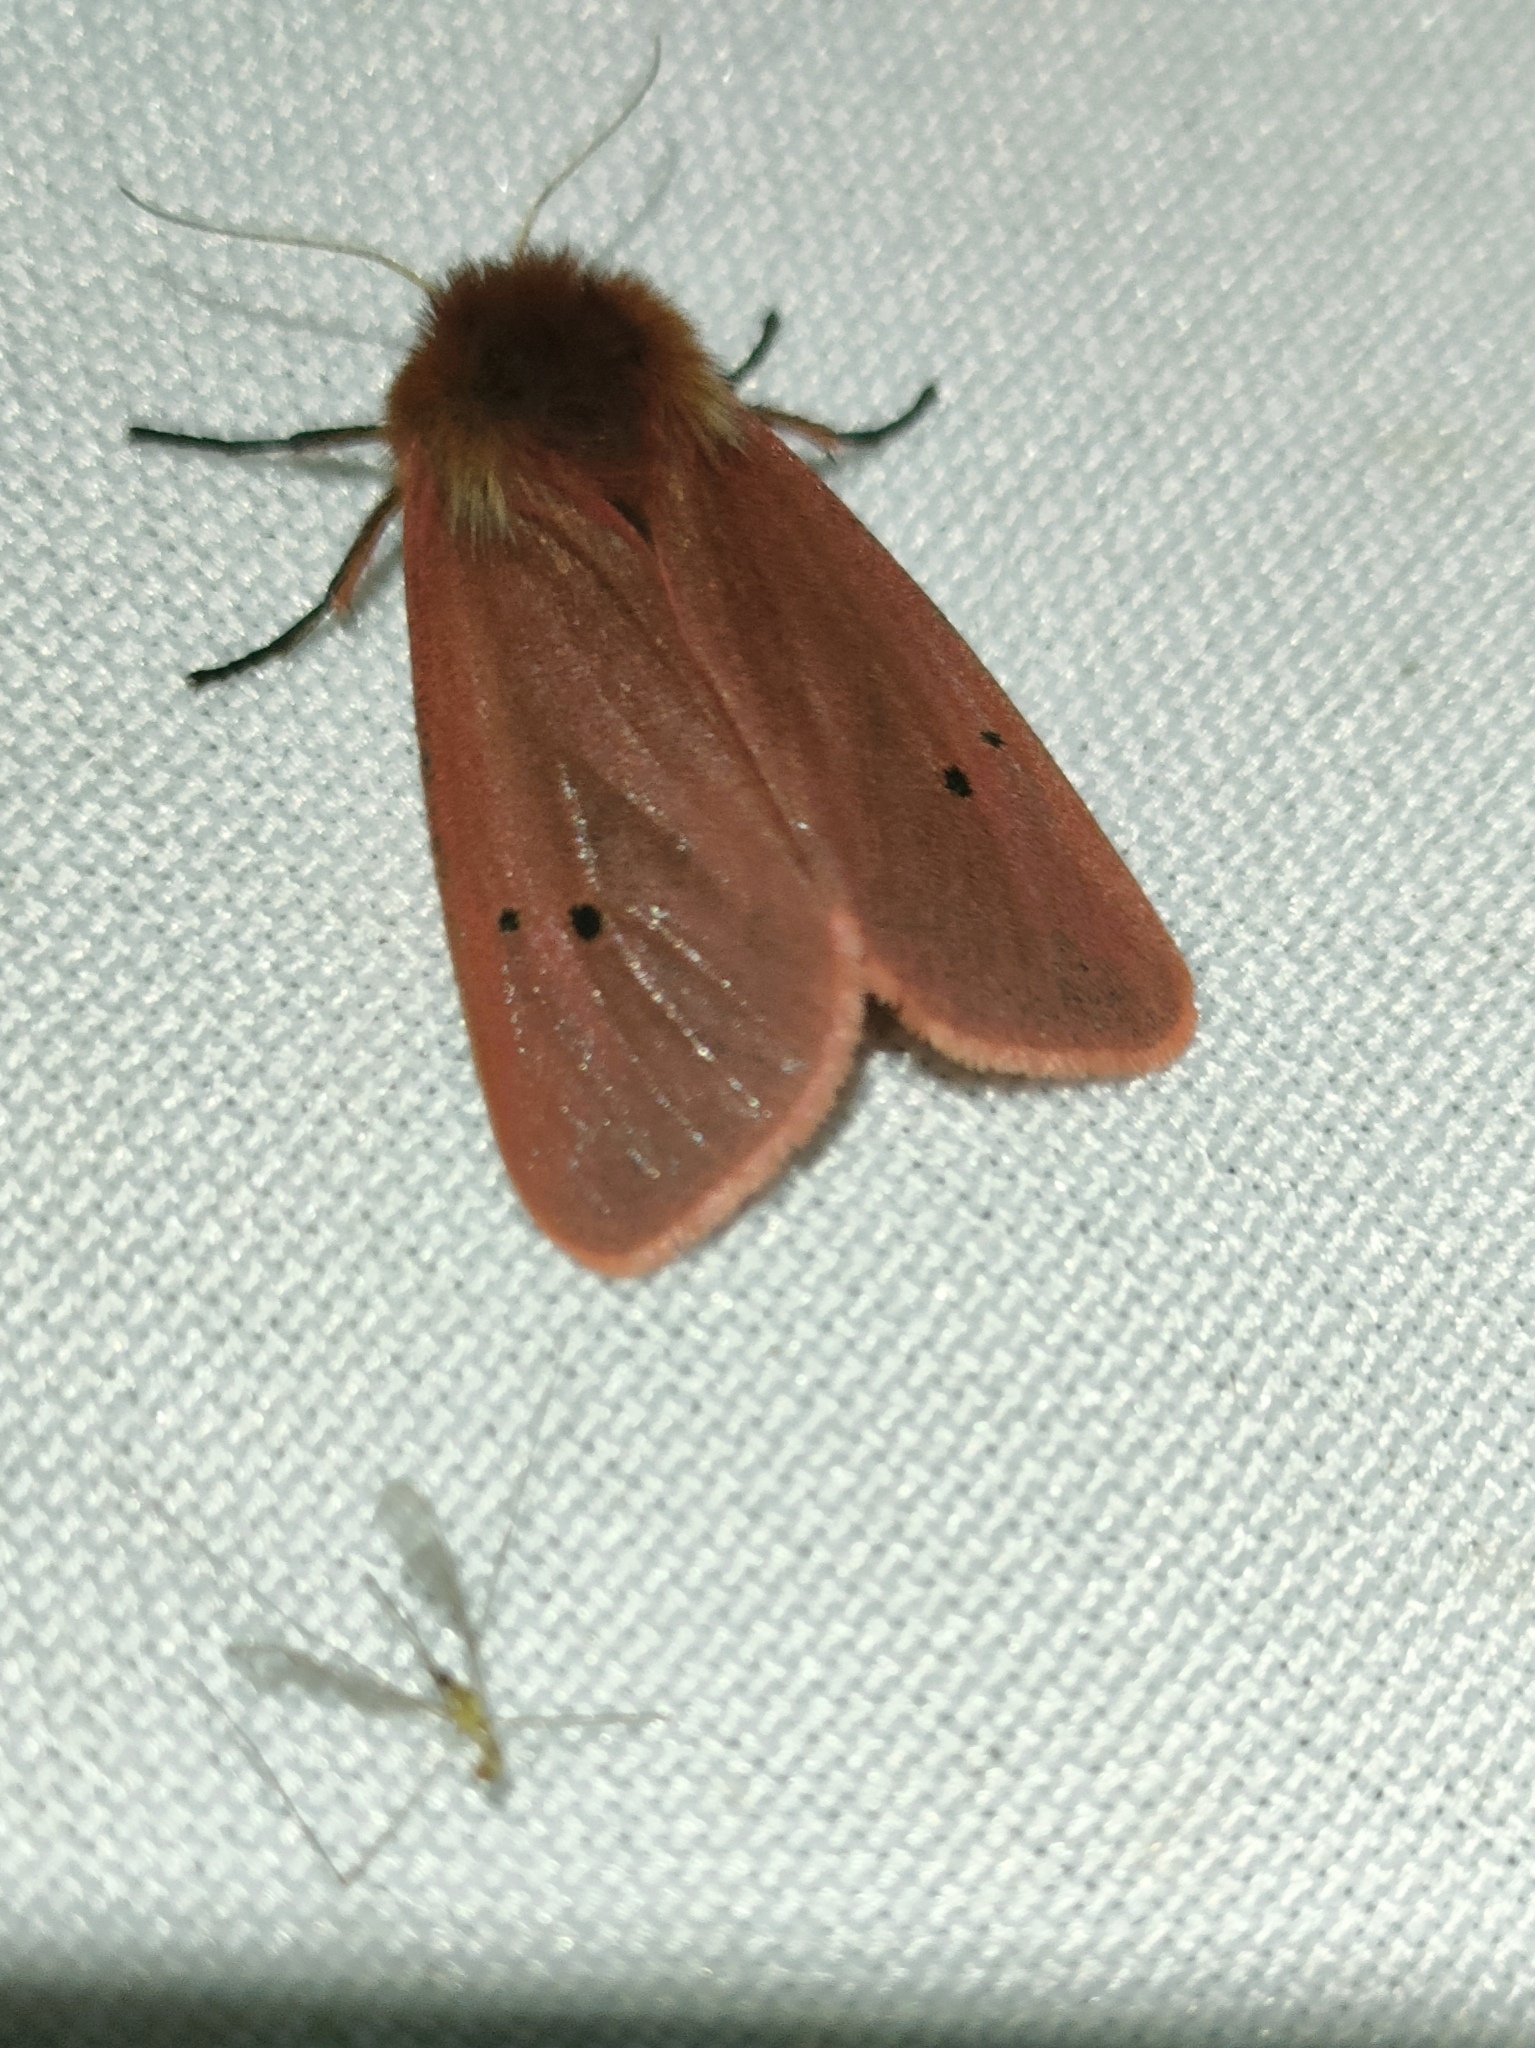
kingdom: Animalia
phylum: Arthropoda
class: Insecta
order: Lepidoptera
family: Erebidae
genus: Phragmatobia
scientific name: Phragmatobia fuliginosa
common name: Ruby tiger
